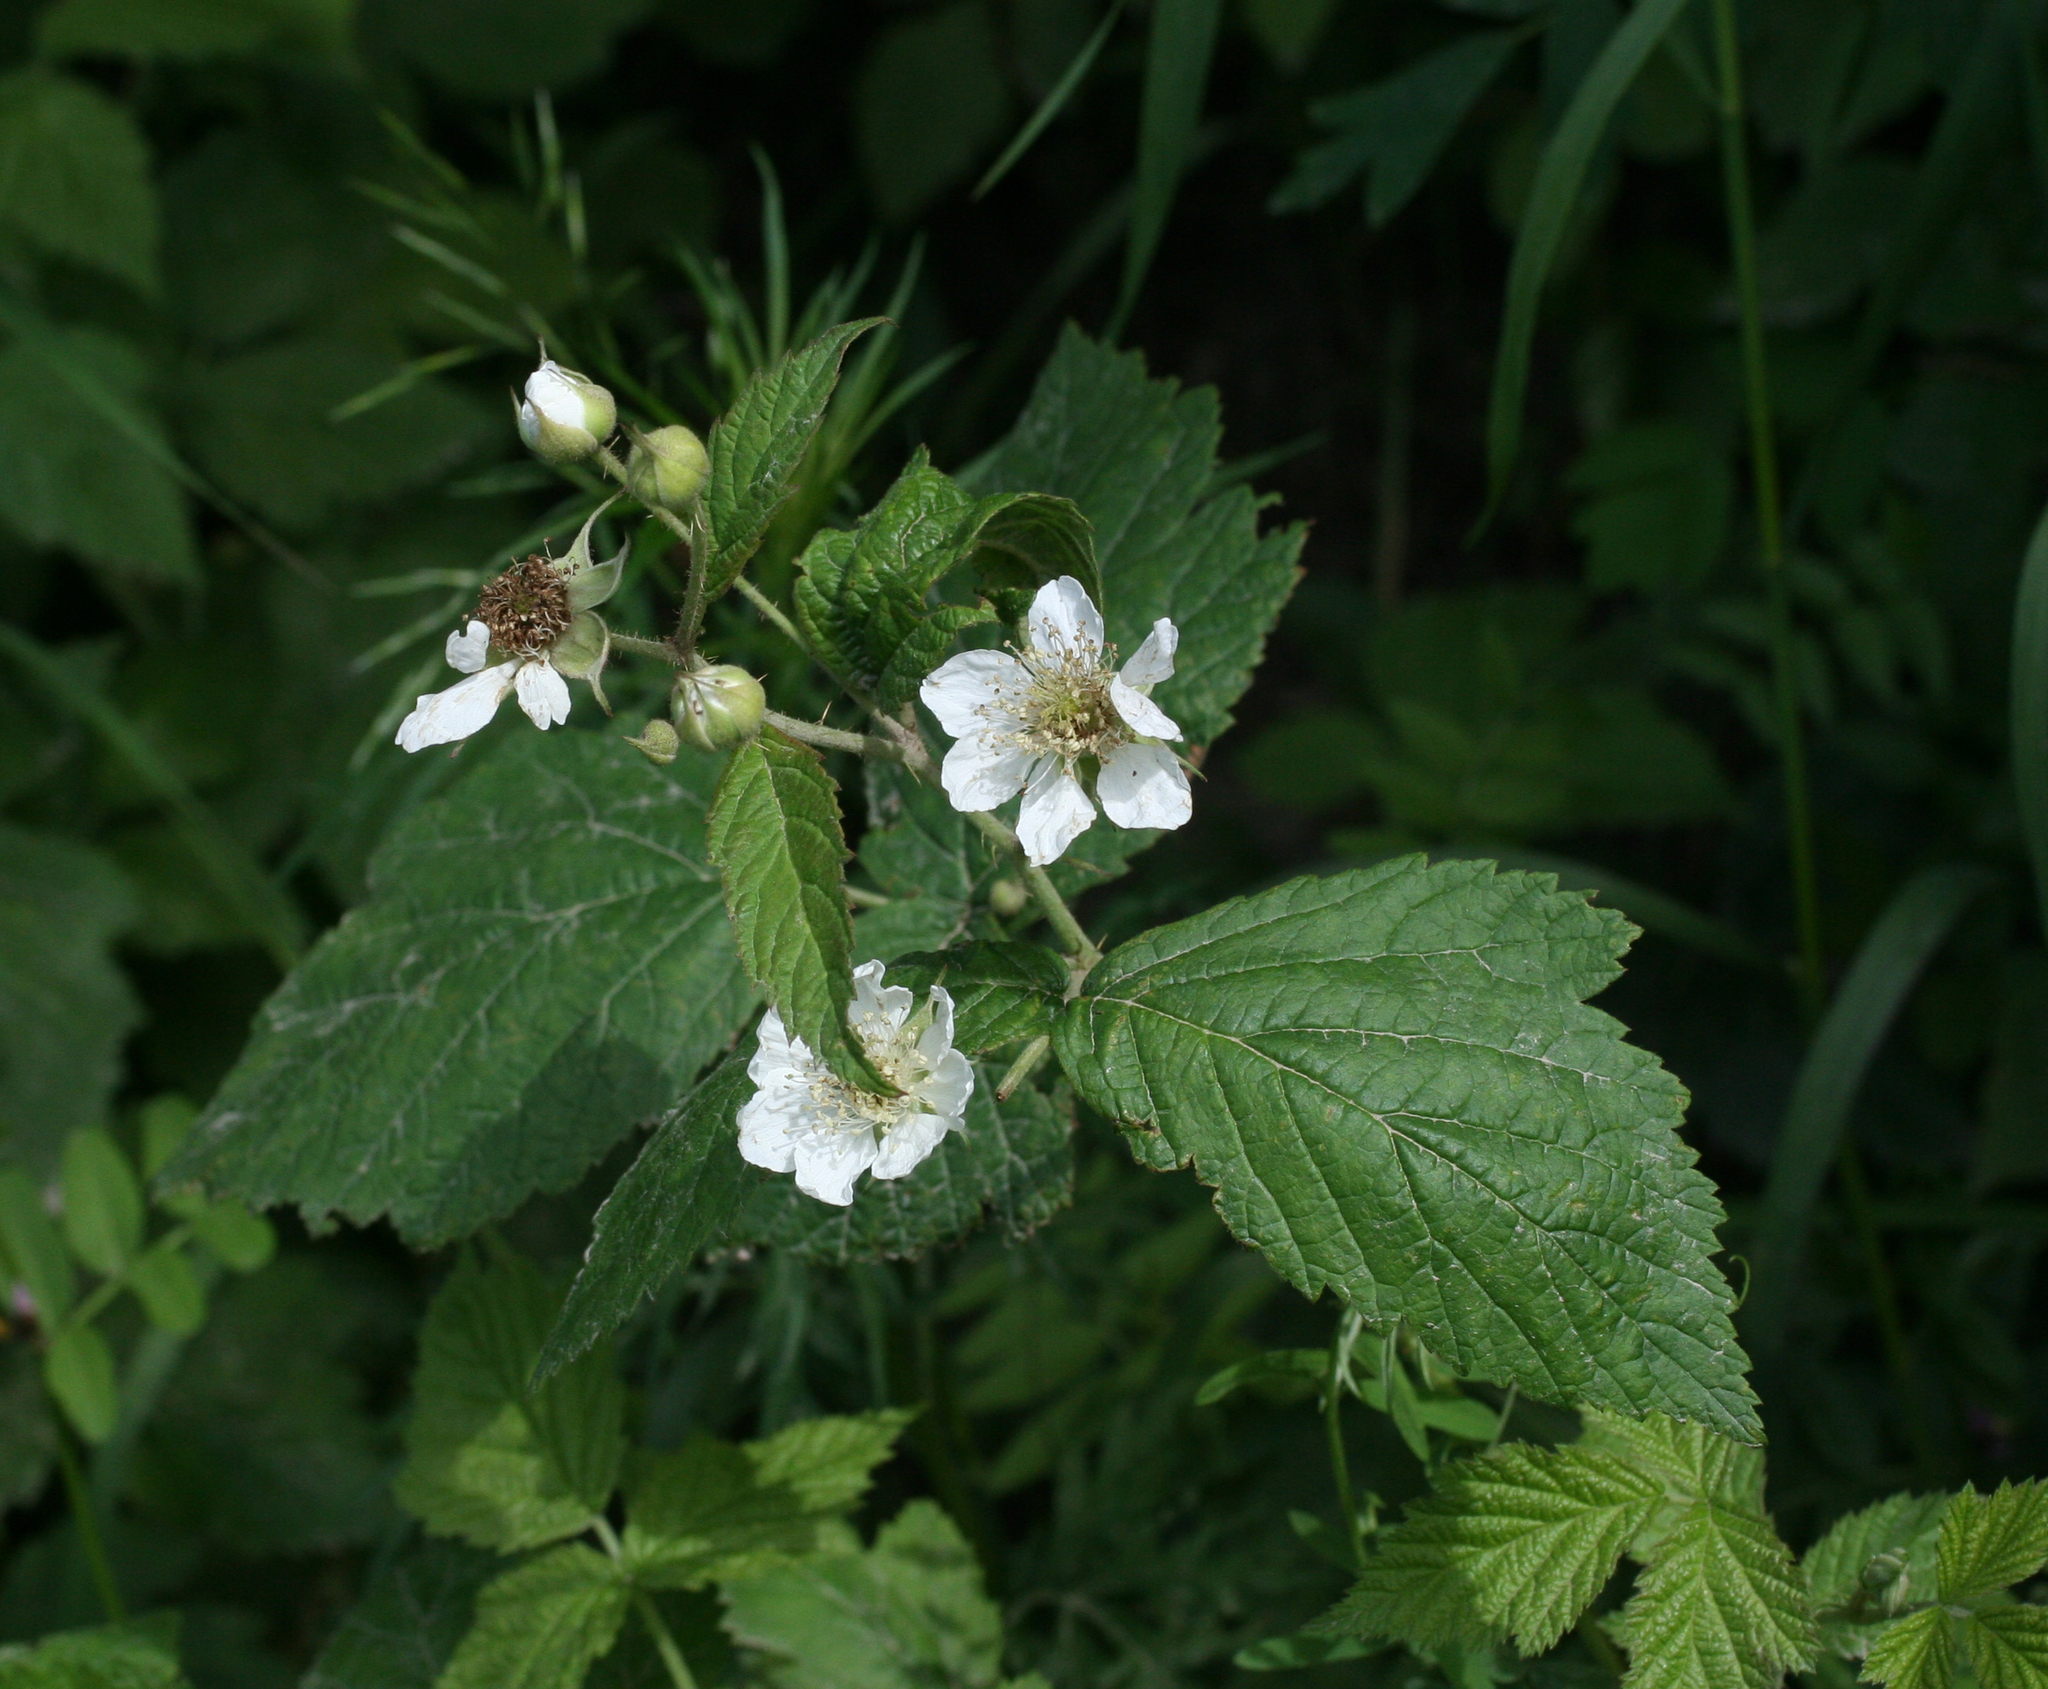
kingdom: Plantae
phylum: Tracheophyta
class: Magnoliopsida
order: Rosales
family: Rosaceae
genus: Rubus
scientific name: Rubus caesius
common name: Dewberry
